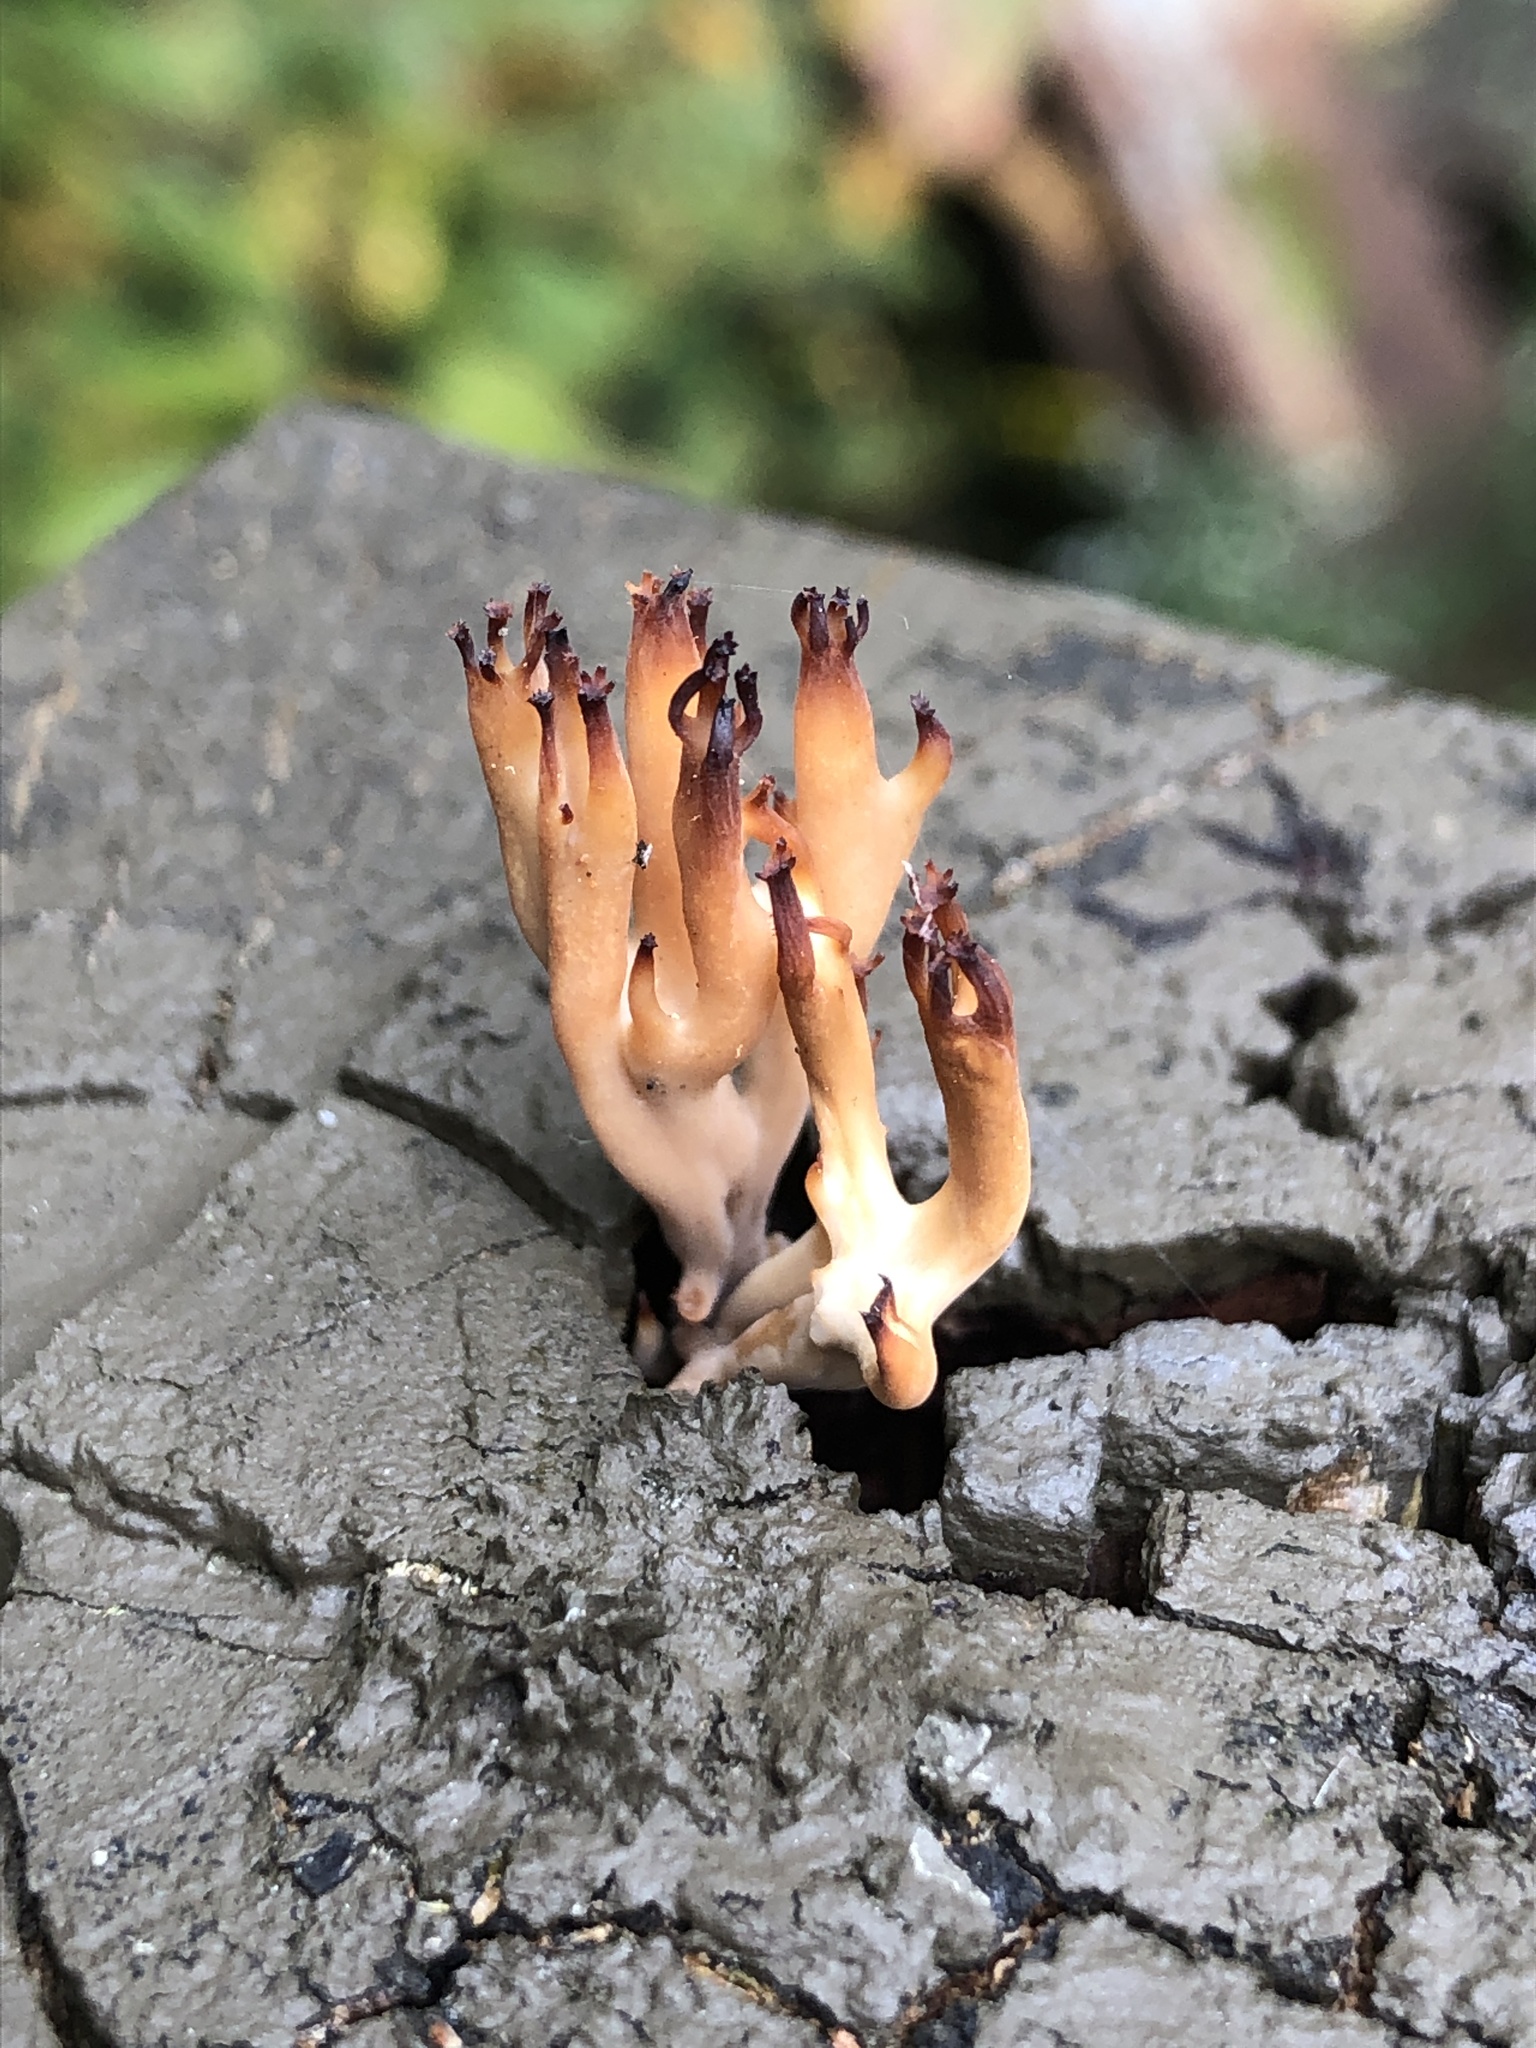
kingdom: Fungi
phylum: Basidiomycota
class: Agaricomycetes
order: Russulales
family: Auriscalpiaceae
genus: Artomyces
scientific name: Artomyces pyxidatus
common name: Crown-tipped coral fungus
